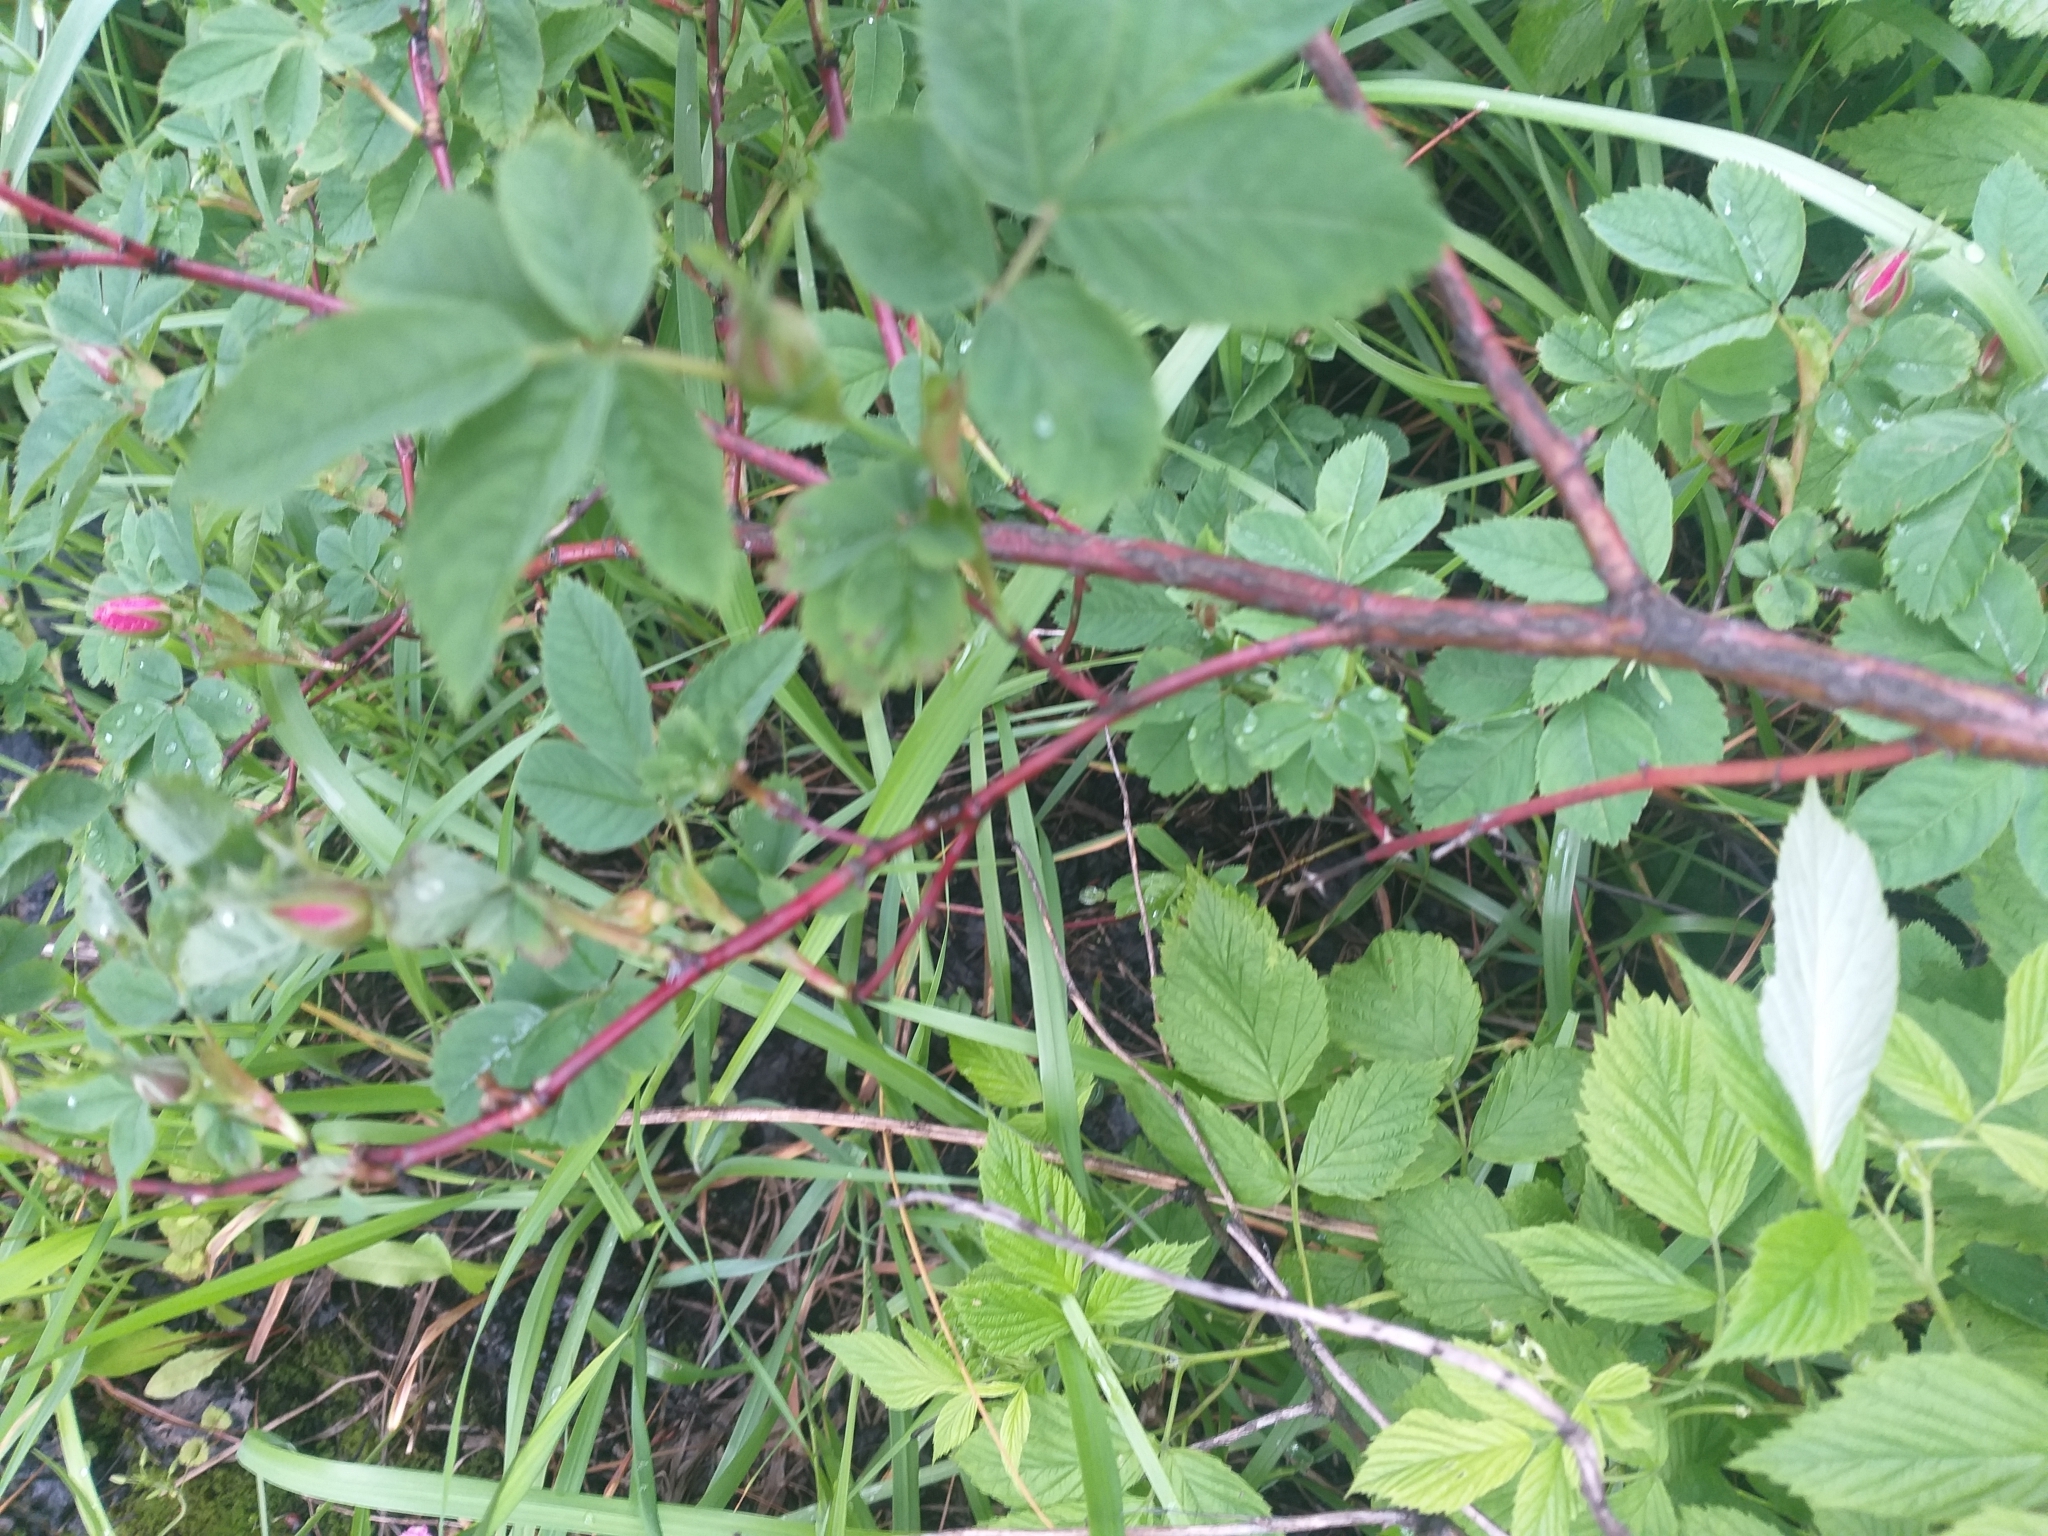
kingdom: Plantae
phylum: Tracheophyta
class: Magnoliopsida
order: Rosales
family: Rosaceae
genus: Rosa
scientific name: Rosa majalis
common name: Cinnamon rose
